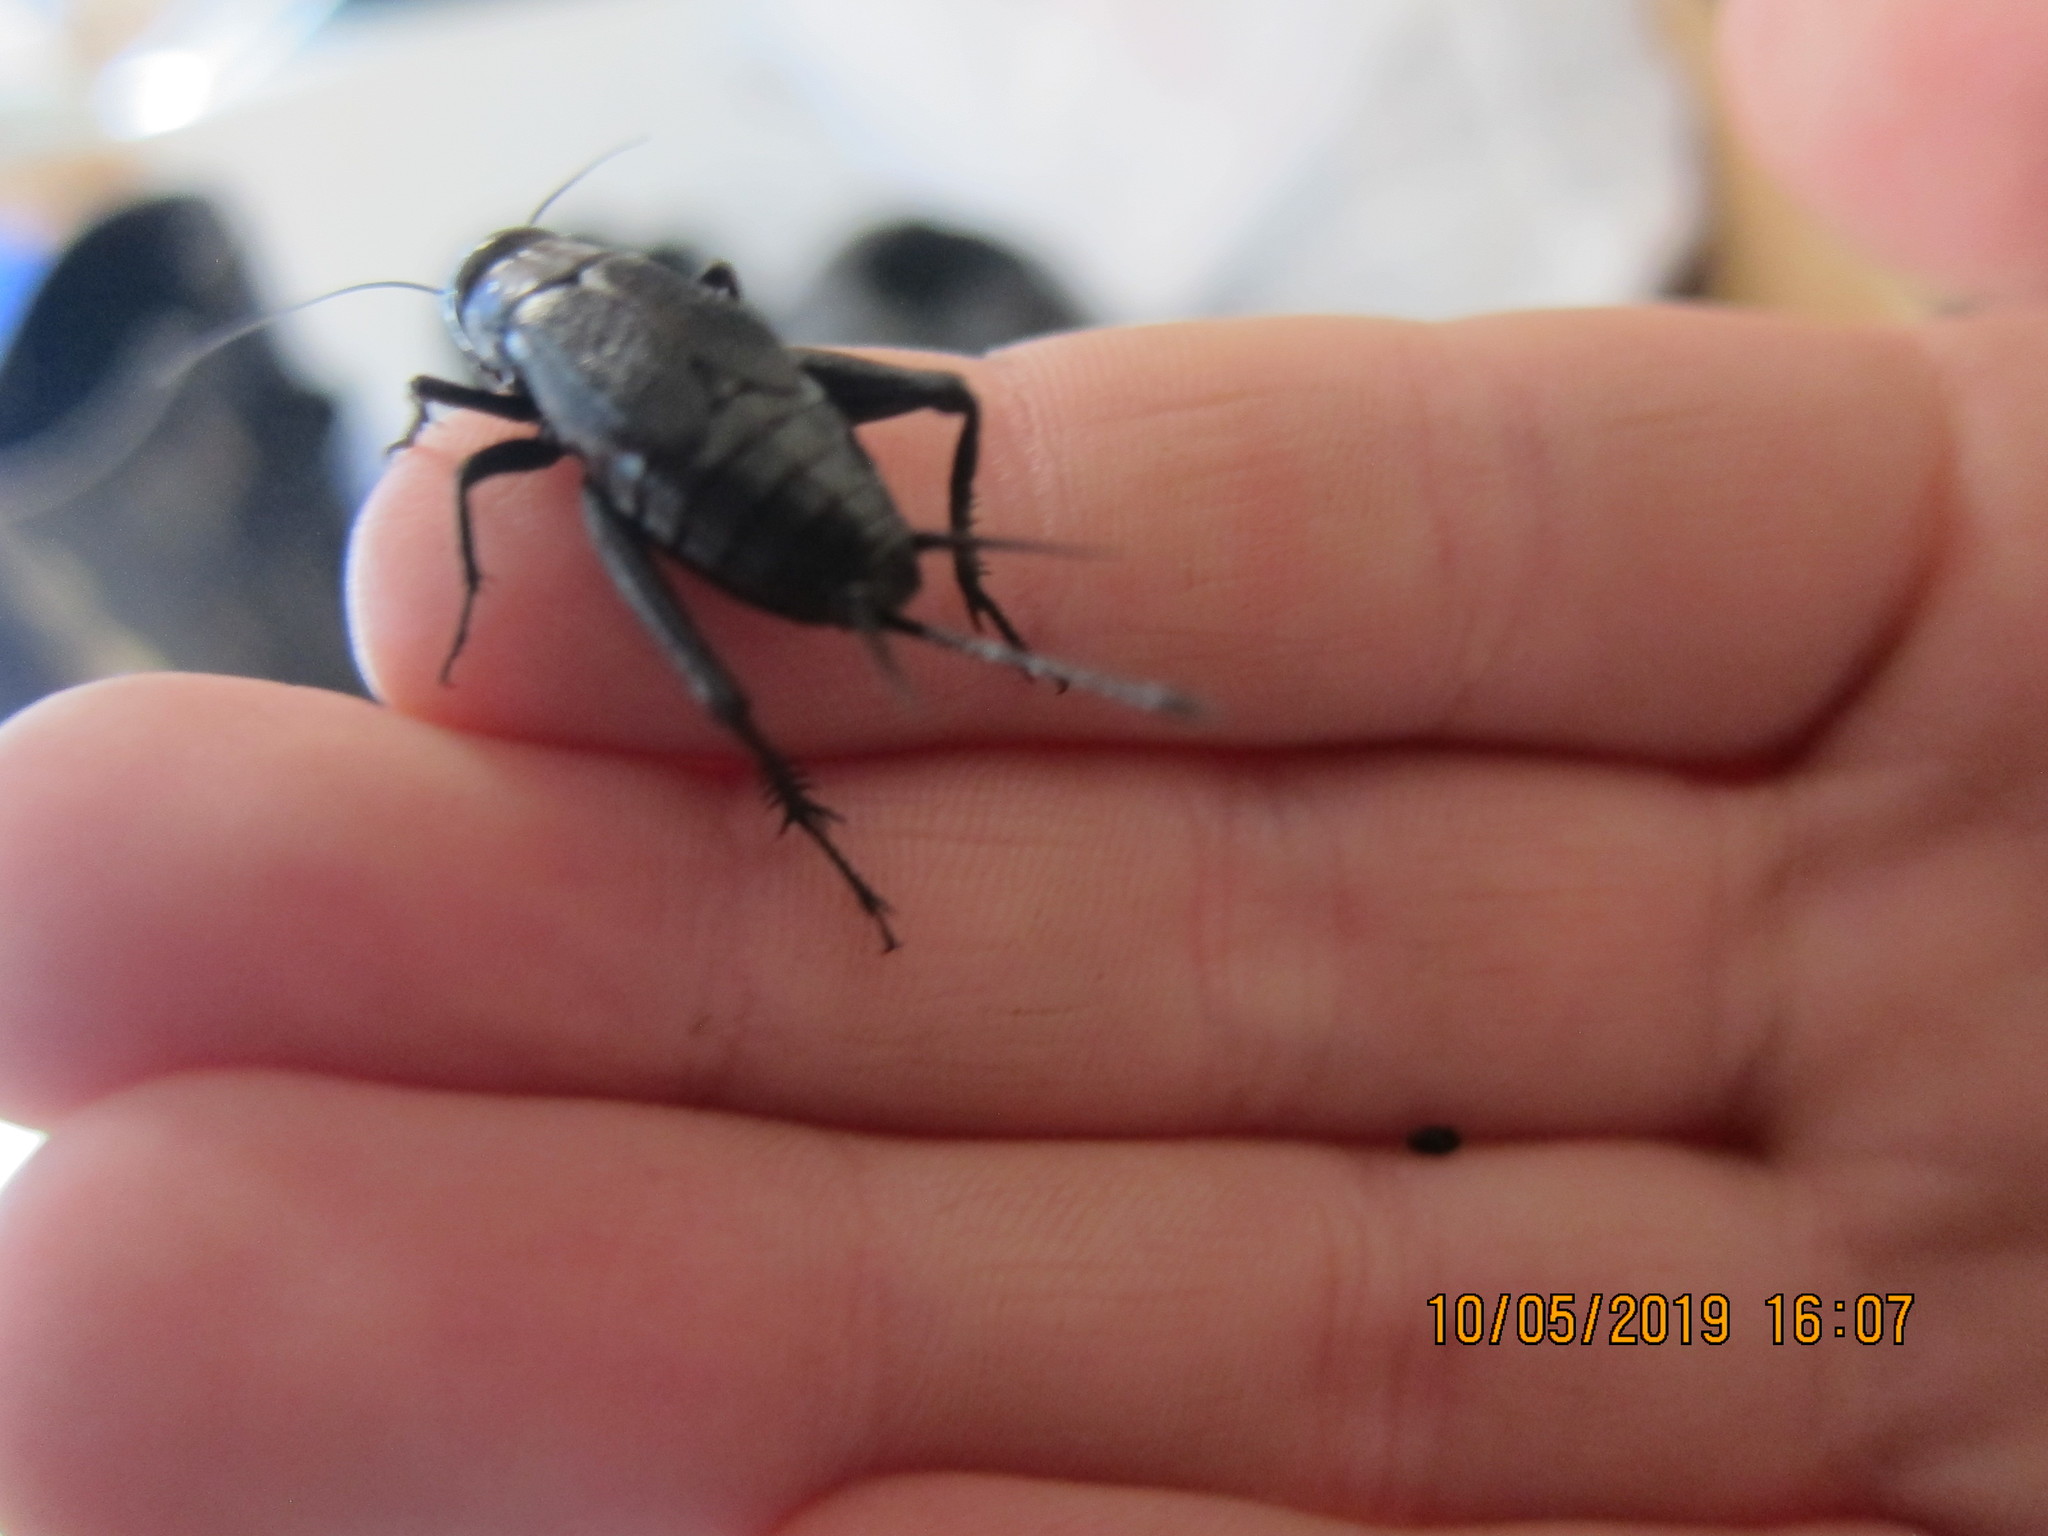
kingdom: Animalia
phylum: Arthropoda
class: Insecta
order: Orthoptera
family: Gryllidae
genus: Gryllus
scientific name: Gryllus pennsylvanicus
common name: Fall field cricket
